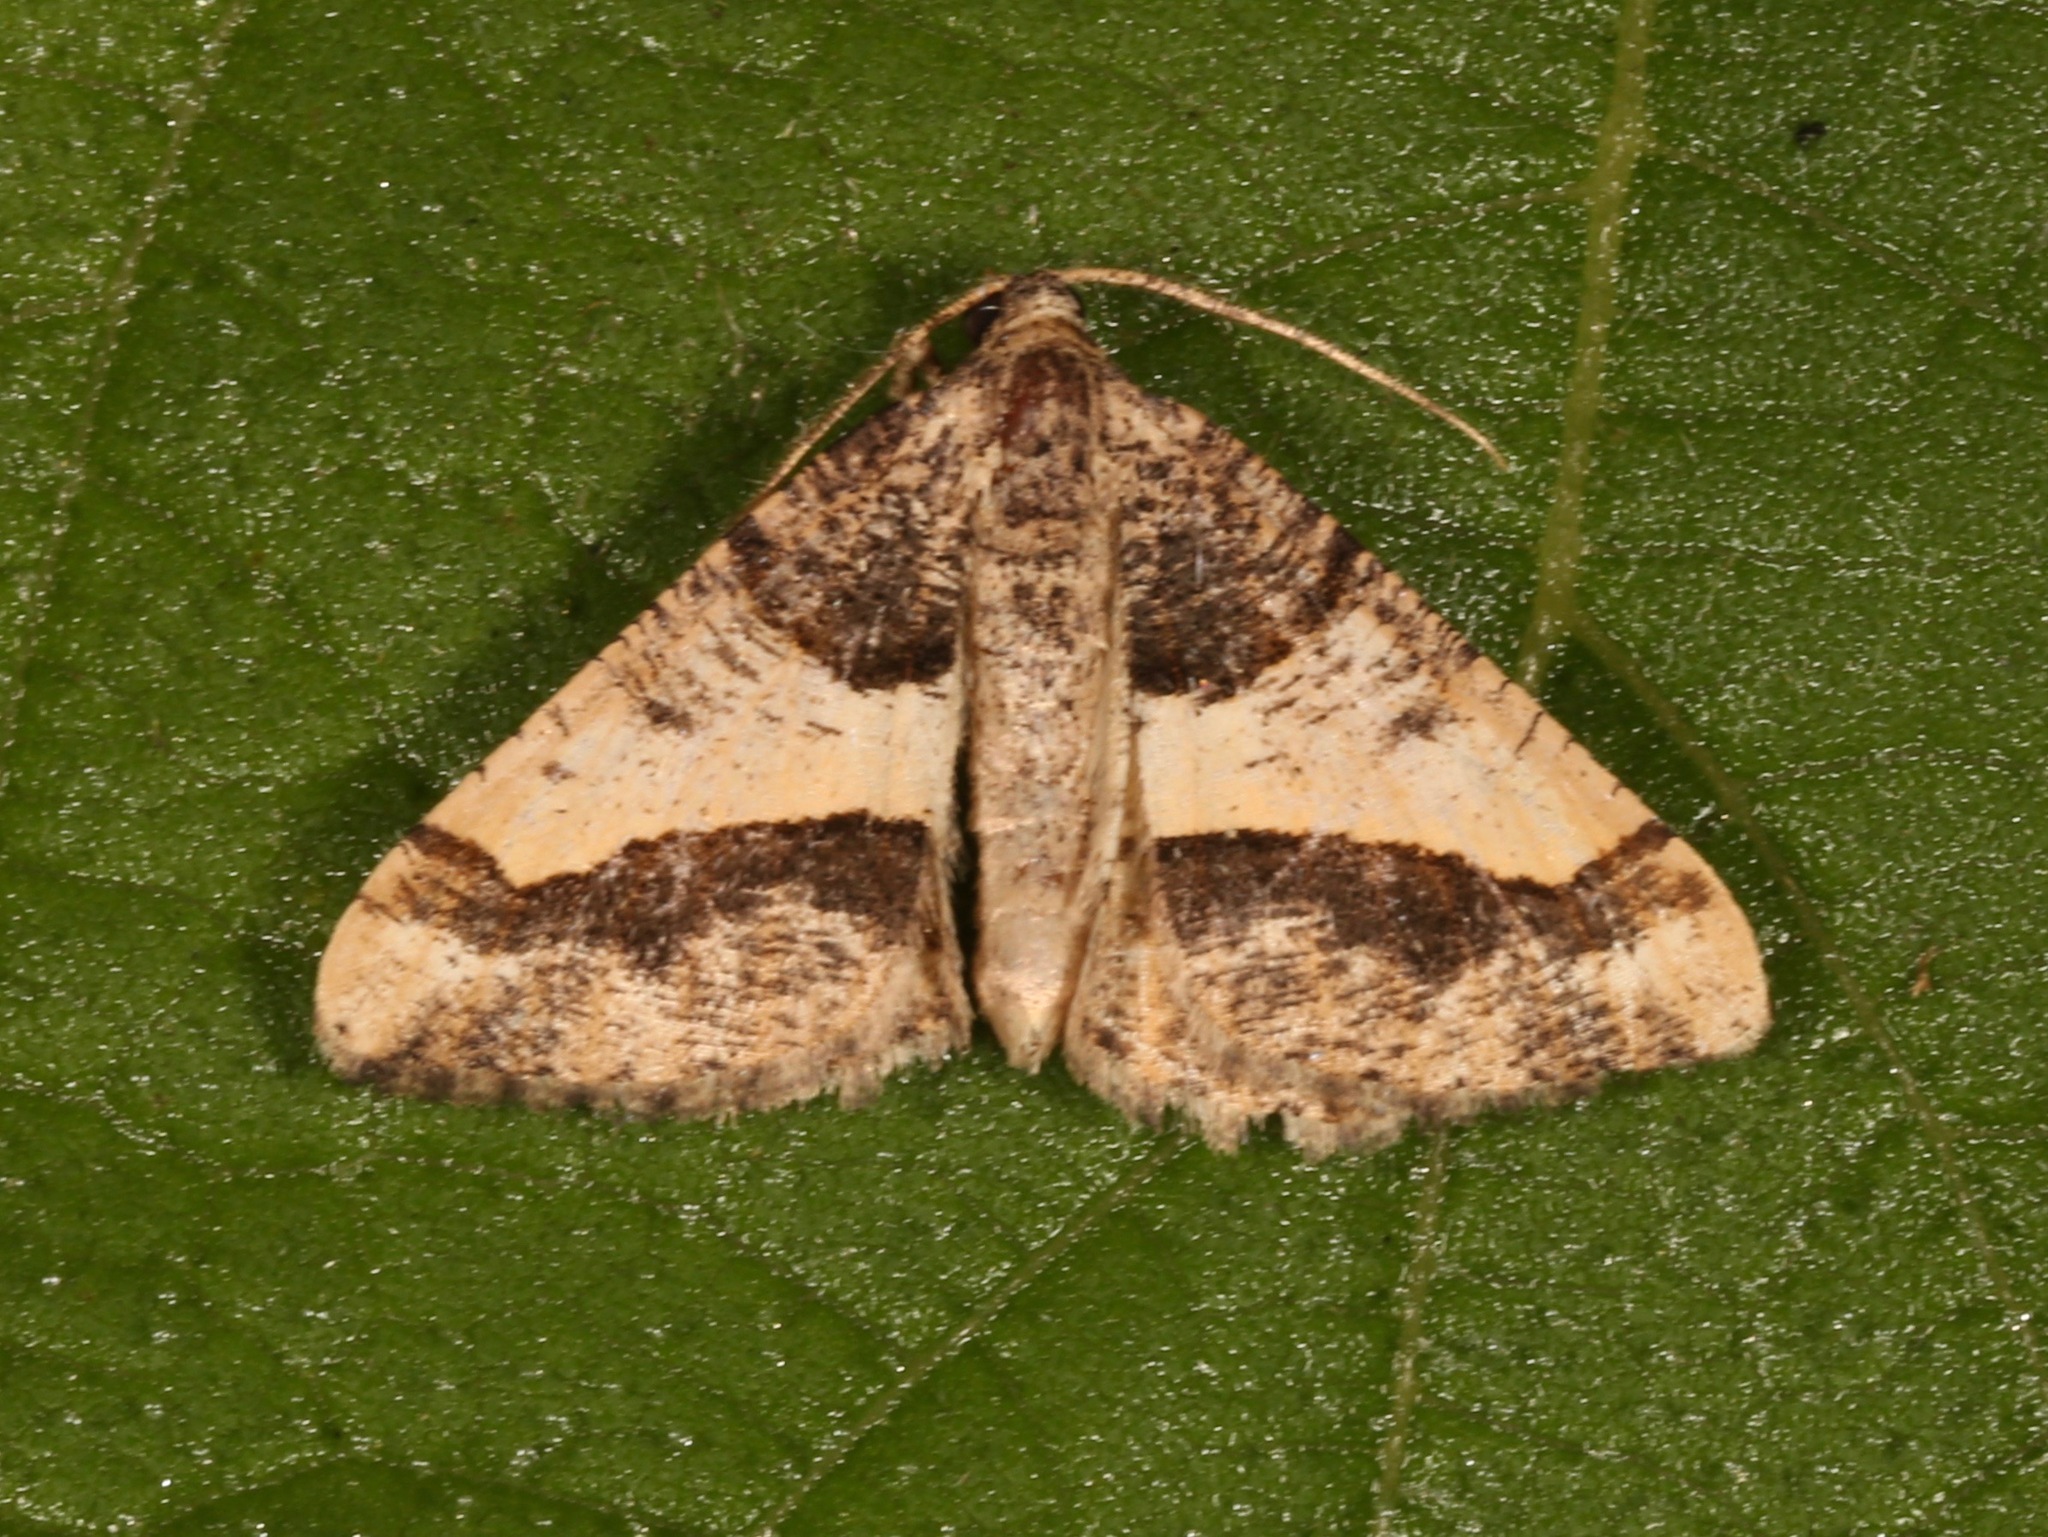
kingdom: Animalia
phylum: Arthropoda
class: Insecta
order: Lepidoptera
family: Geometridae
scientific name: Geometridae
